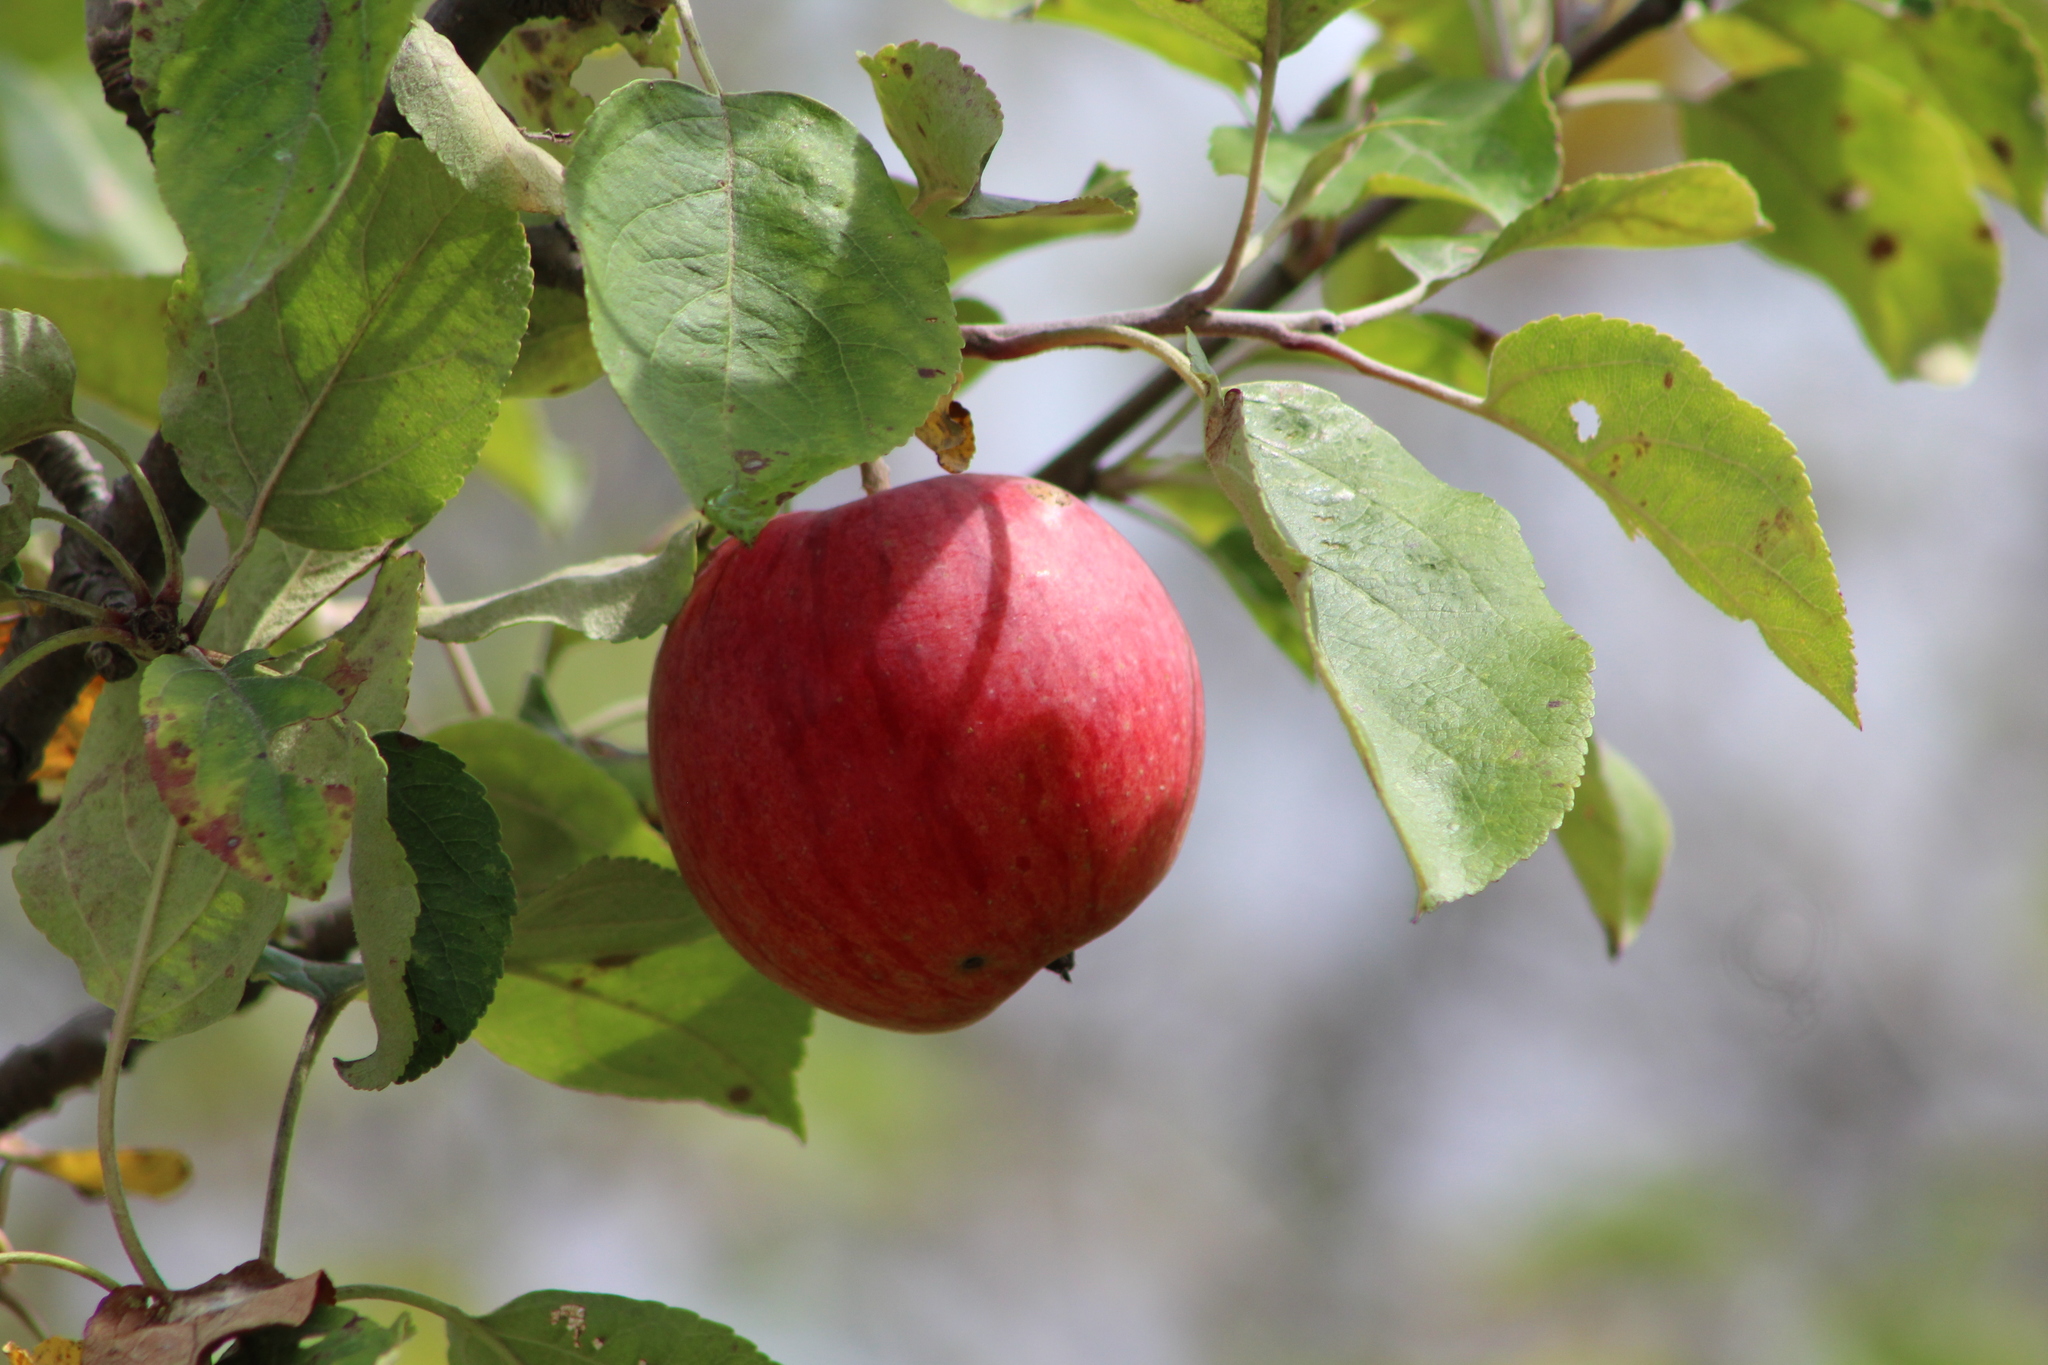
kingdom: Plantae
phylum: Tracheophyta
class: Magnoliopsida
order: Rosales
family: Rosaceae
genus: Malus
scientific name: Malus domestica
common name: Apple
